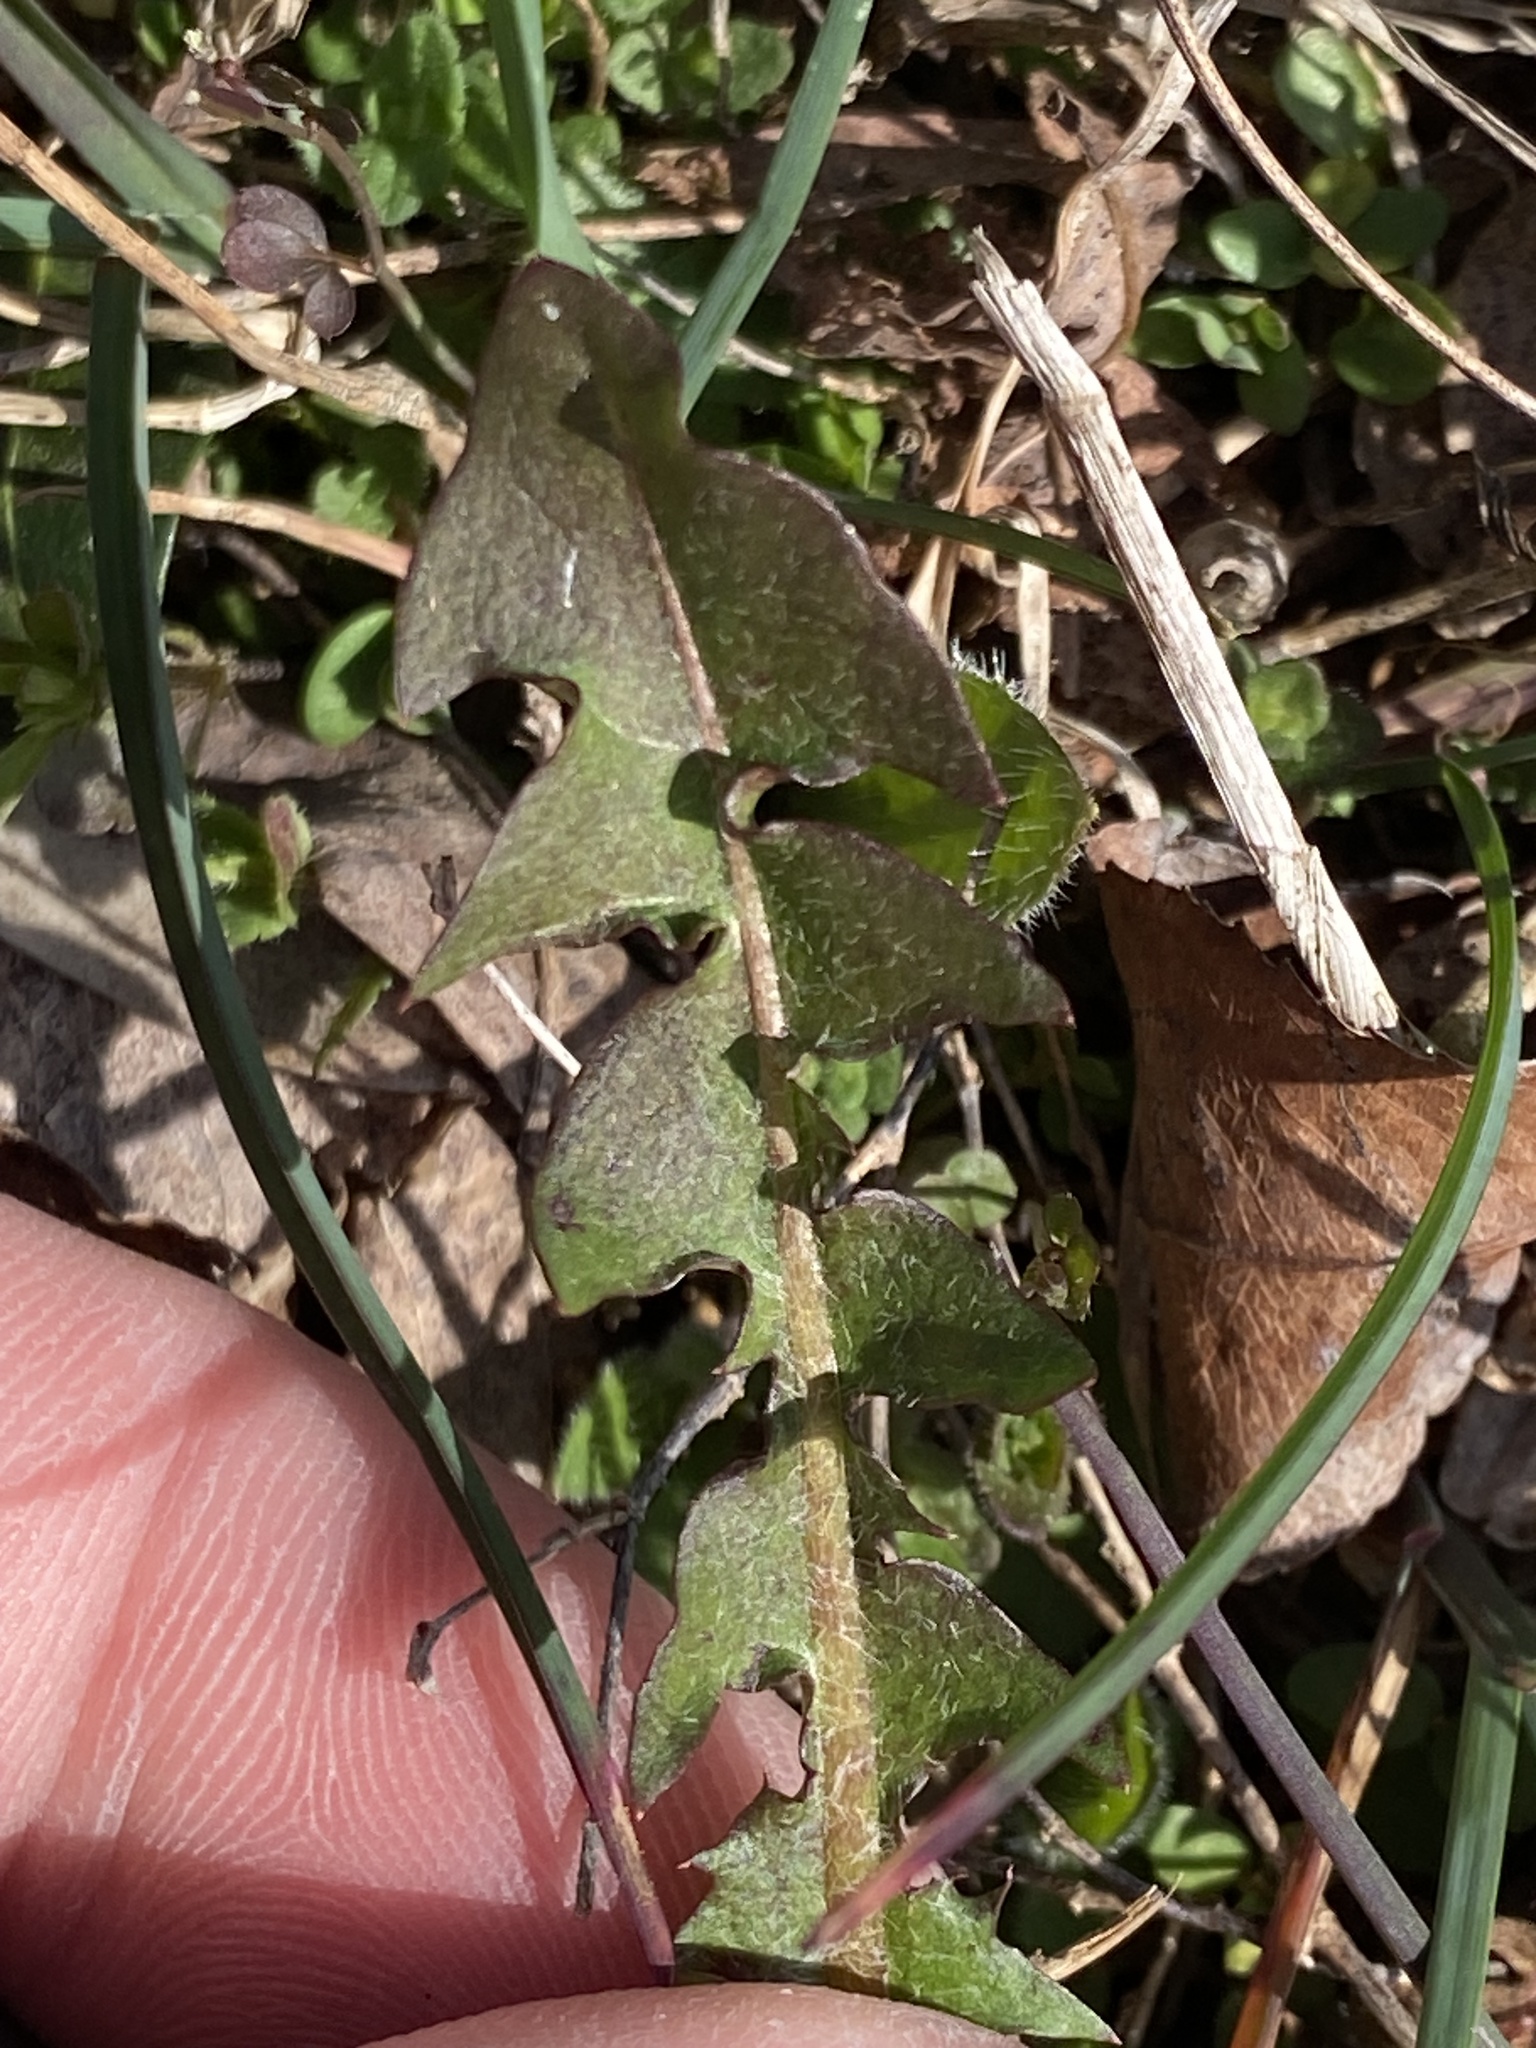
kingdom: Plantae
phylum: Tracheophyta
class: Magnoliopsida
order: Asterales
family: Asteraceae
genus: Taraxacum
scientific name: Taraxacum
